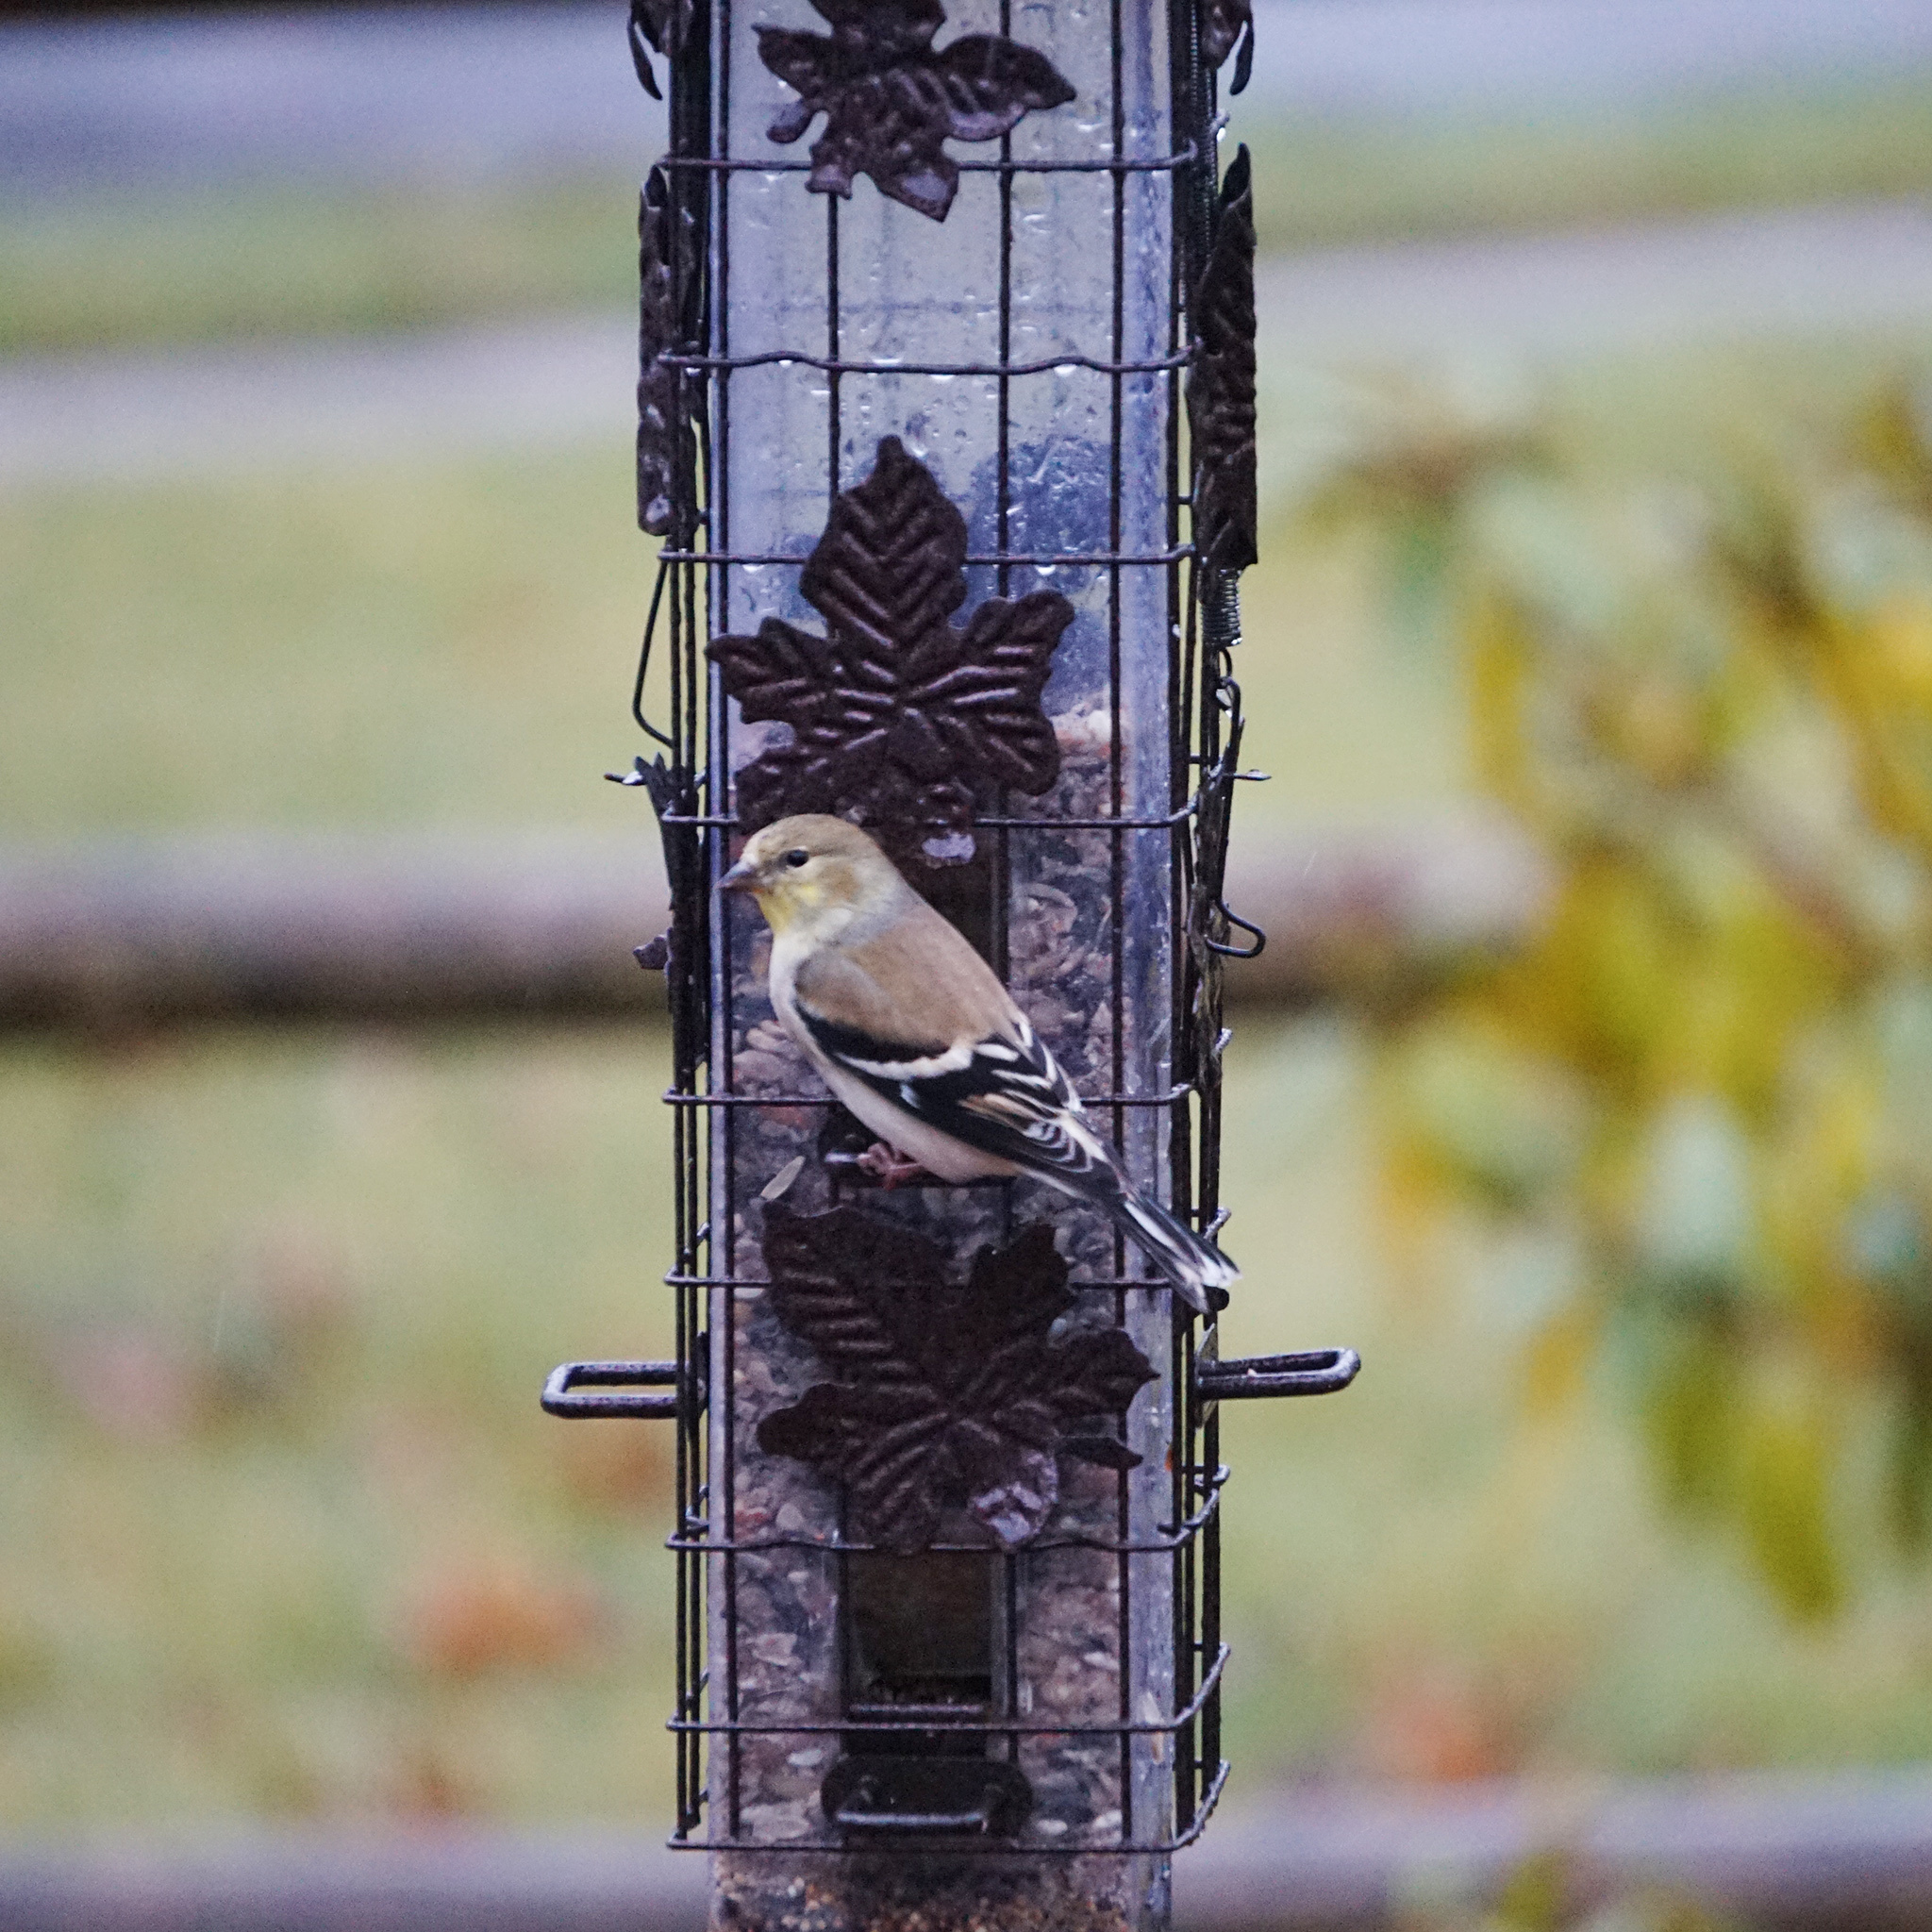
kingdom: Animalia
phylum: Chordata
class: Aves
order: Passeriformes
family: Fringillidae
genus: Spinus
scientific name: Spinus tristis
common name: American goldfinch
